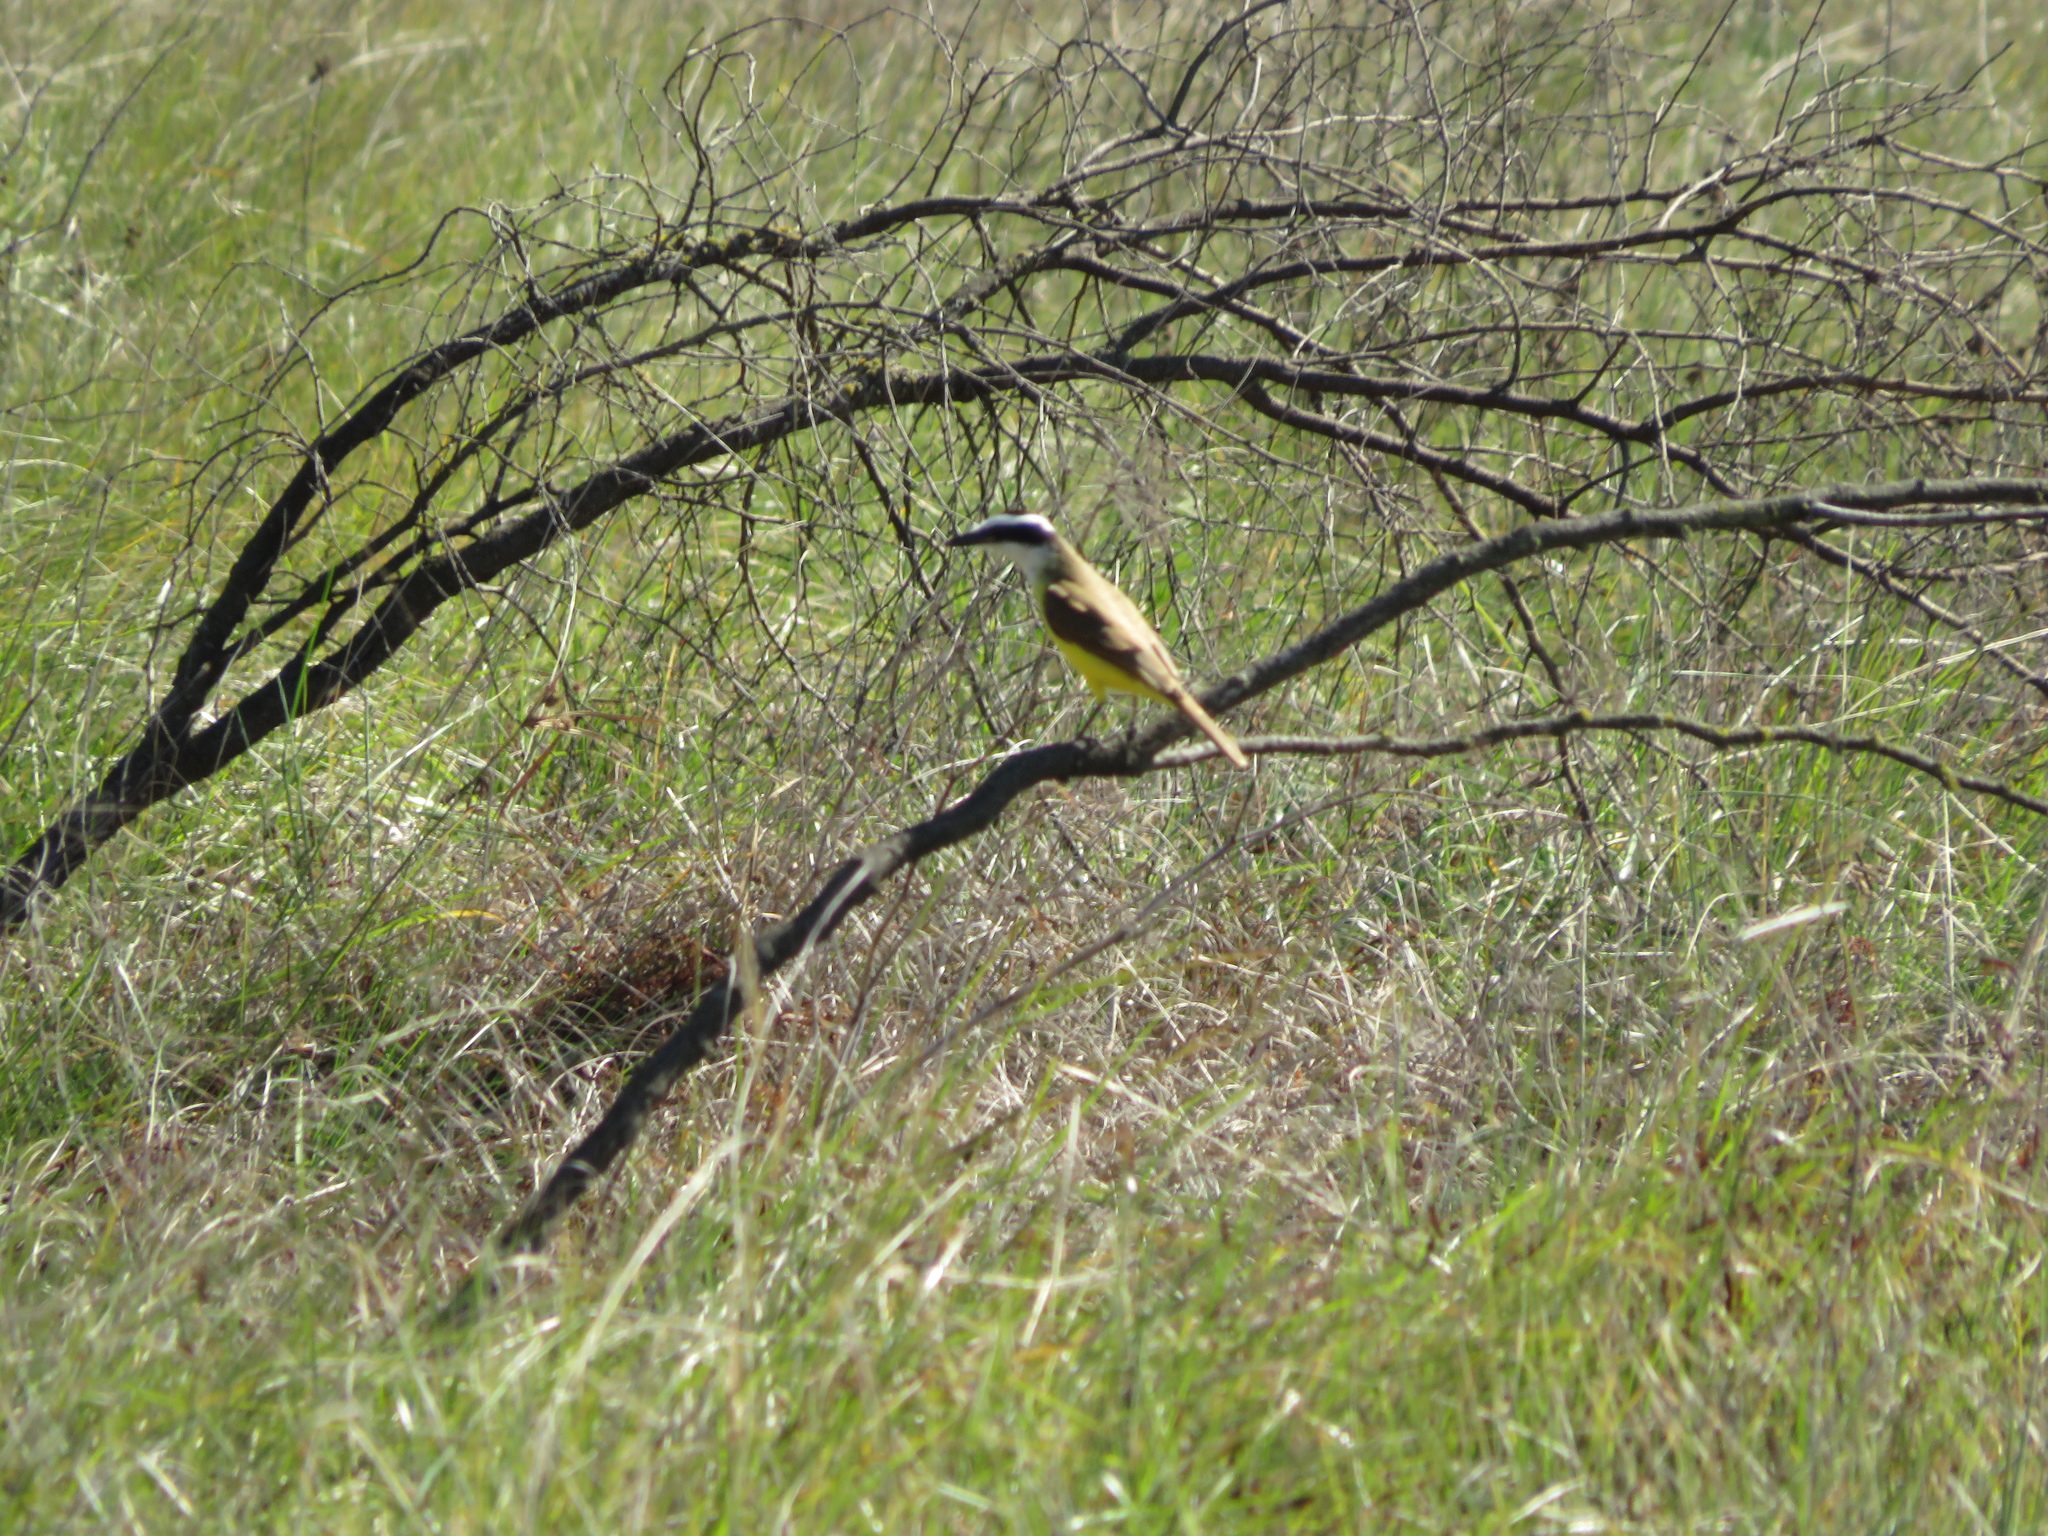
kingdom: Animalia
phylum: Chordata
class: Aves
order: Passeriformes
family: Tyrannidae
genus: Pitangus
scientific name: Pitangus sulphuratus
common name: Great kiskadee
